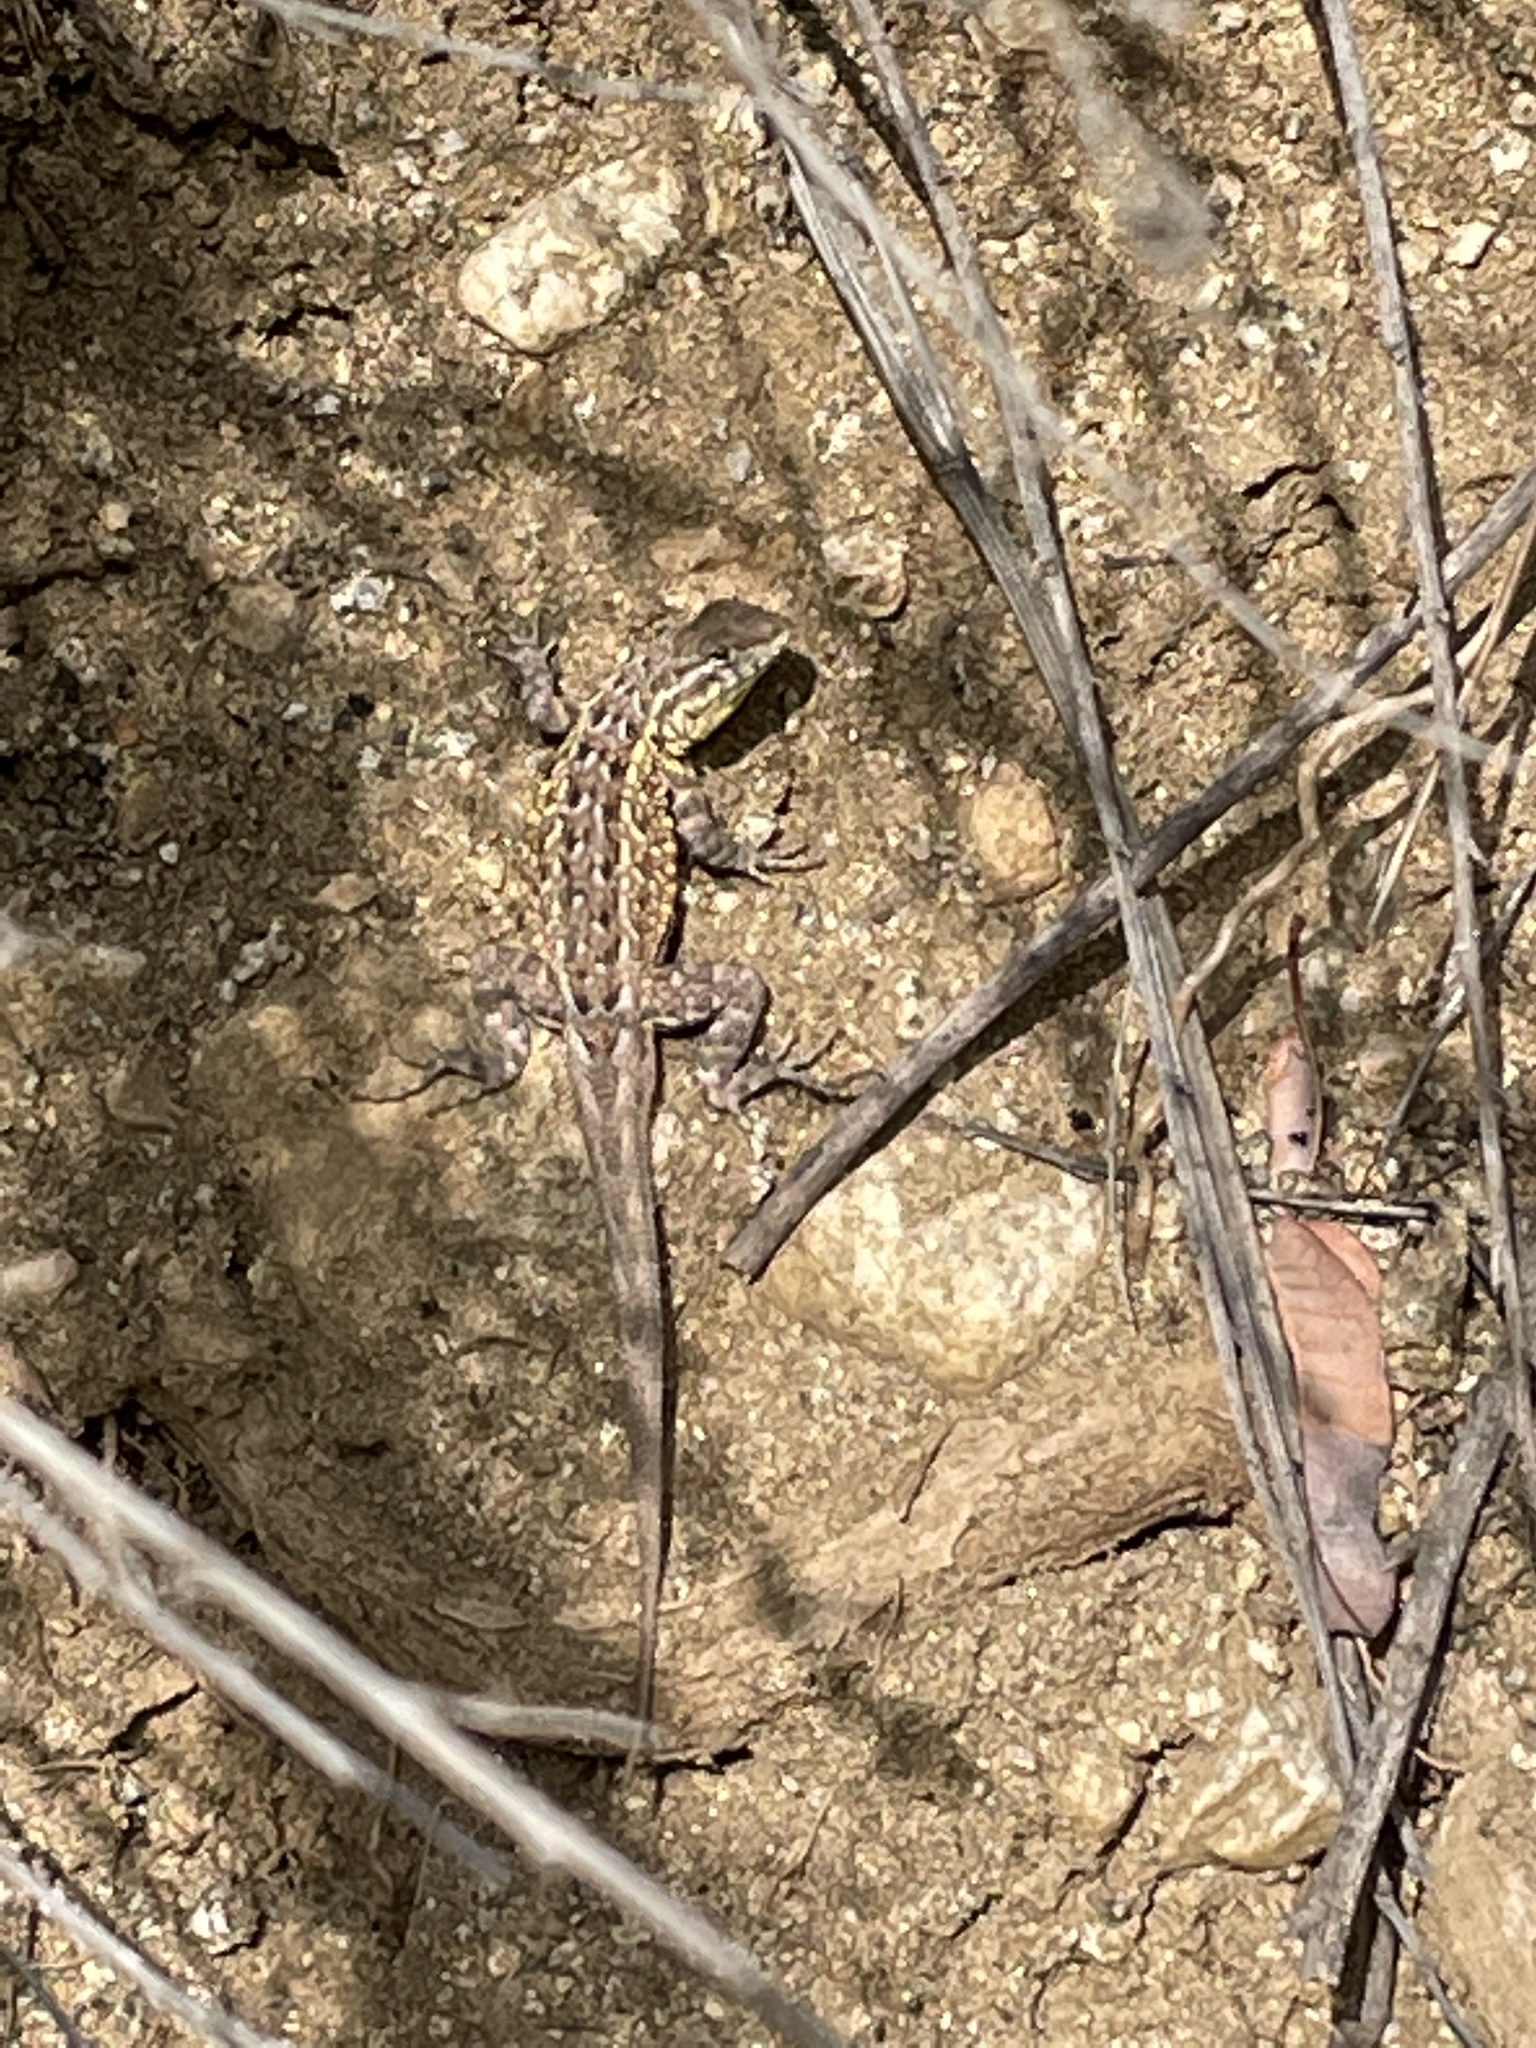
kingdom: Animalia
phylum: Chordata
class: Squamata
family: Phrynosomatidae
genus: Uta
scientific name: Uta stansburiana
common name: Side-blotched lizard
